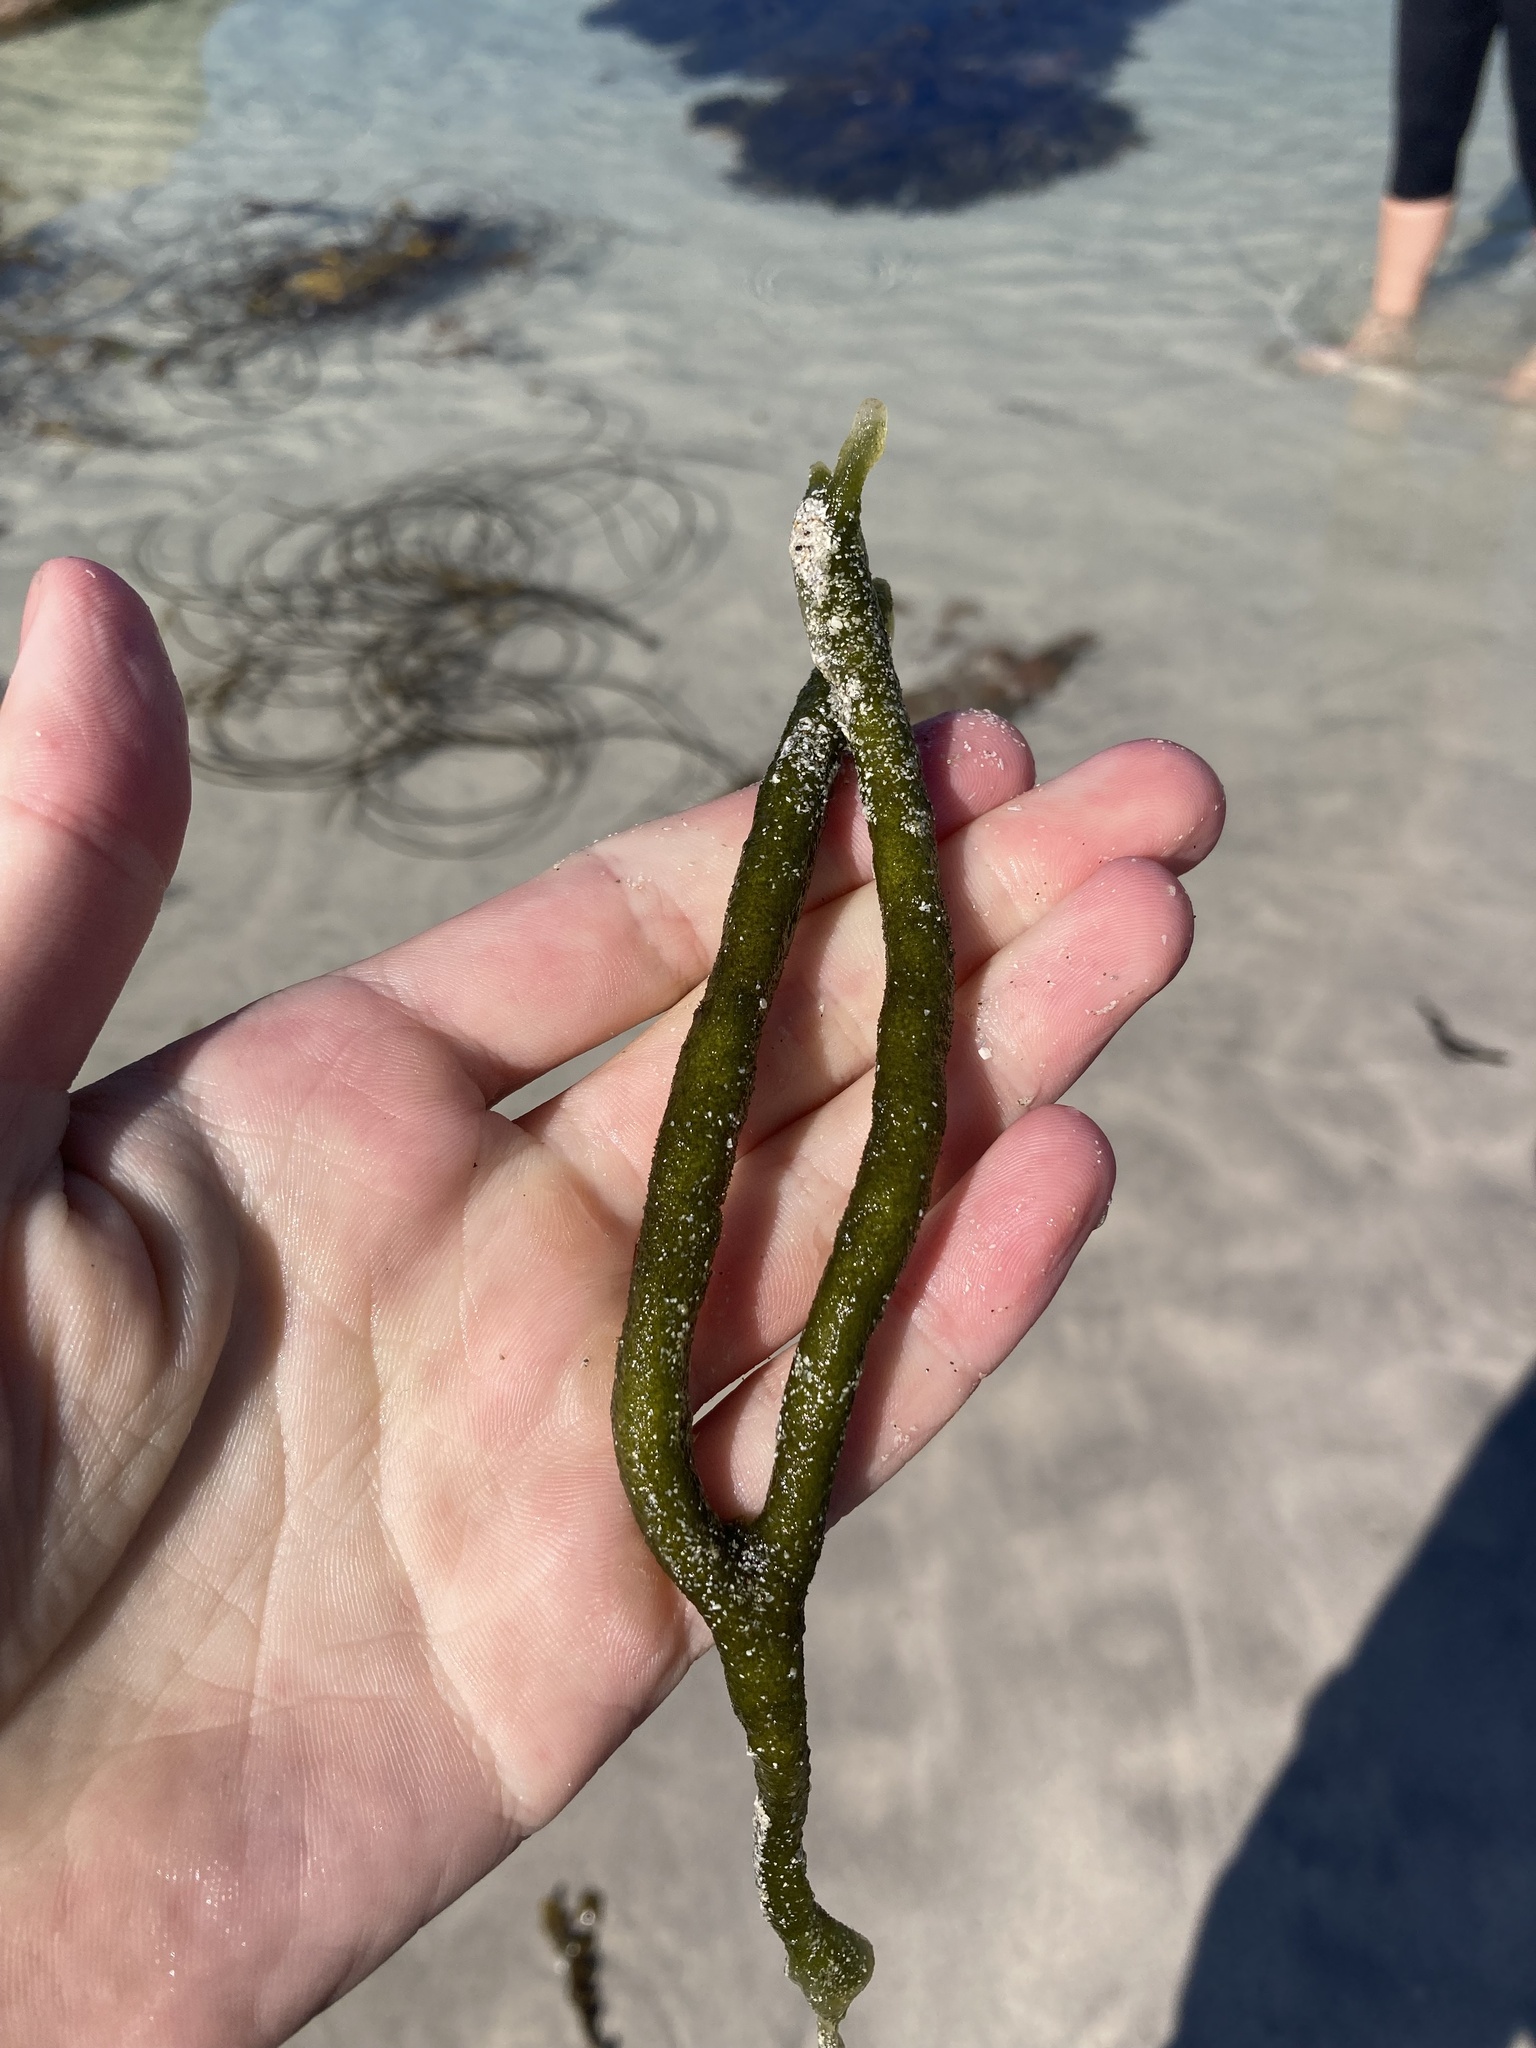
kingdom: Plantae
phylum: Chlorophyta
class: Ulvophyceae
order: Bryopsidales
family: Codiaceae
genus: Codium
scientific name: Codium fragile
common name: Dead man's fingers
